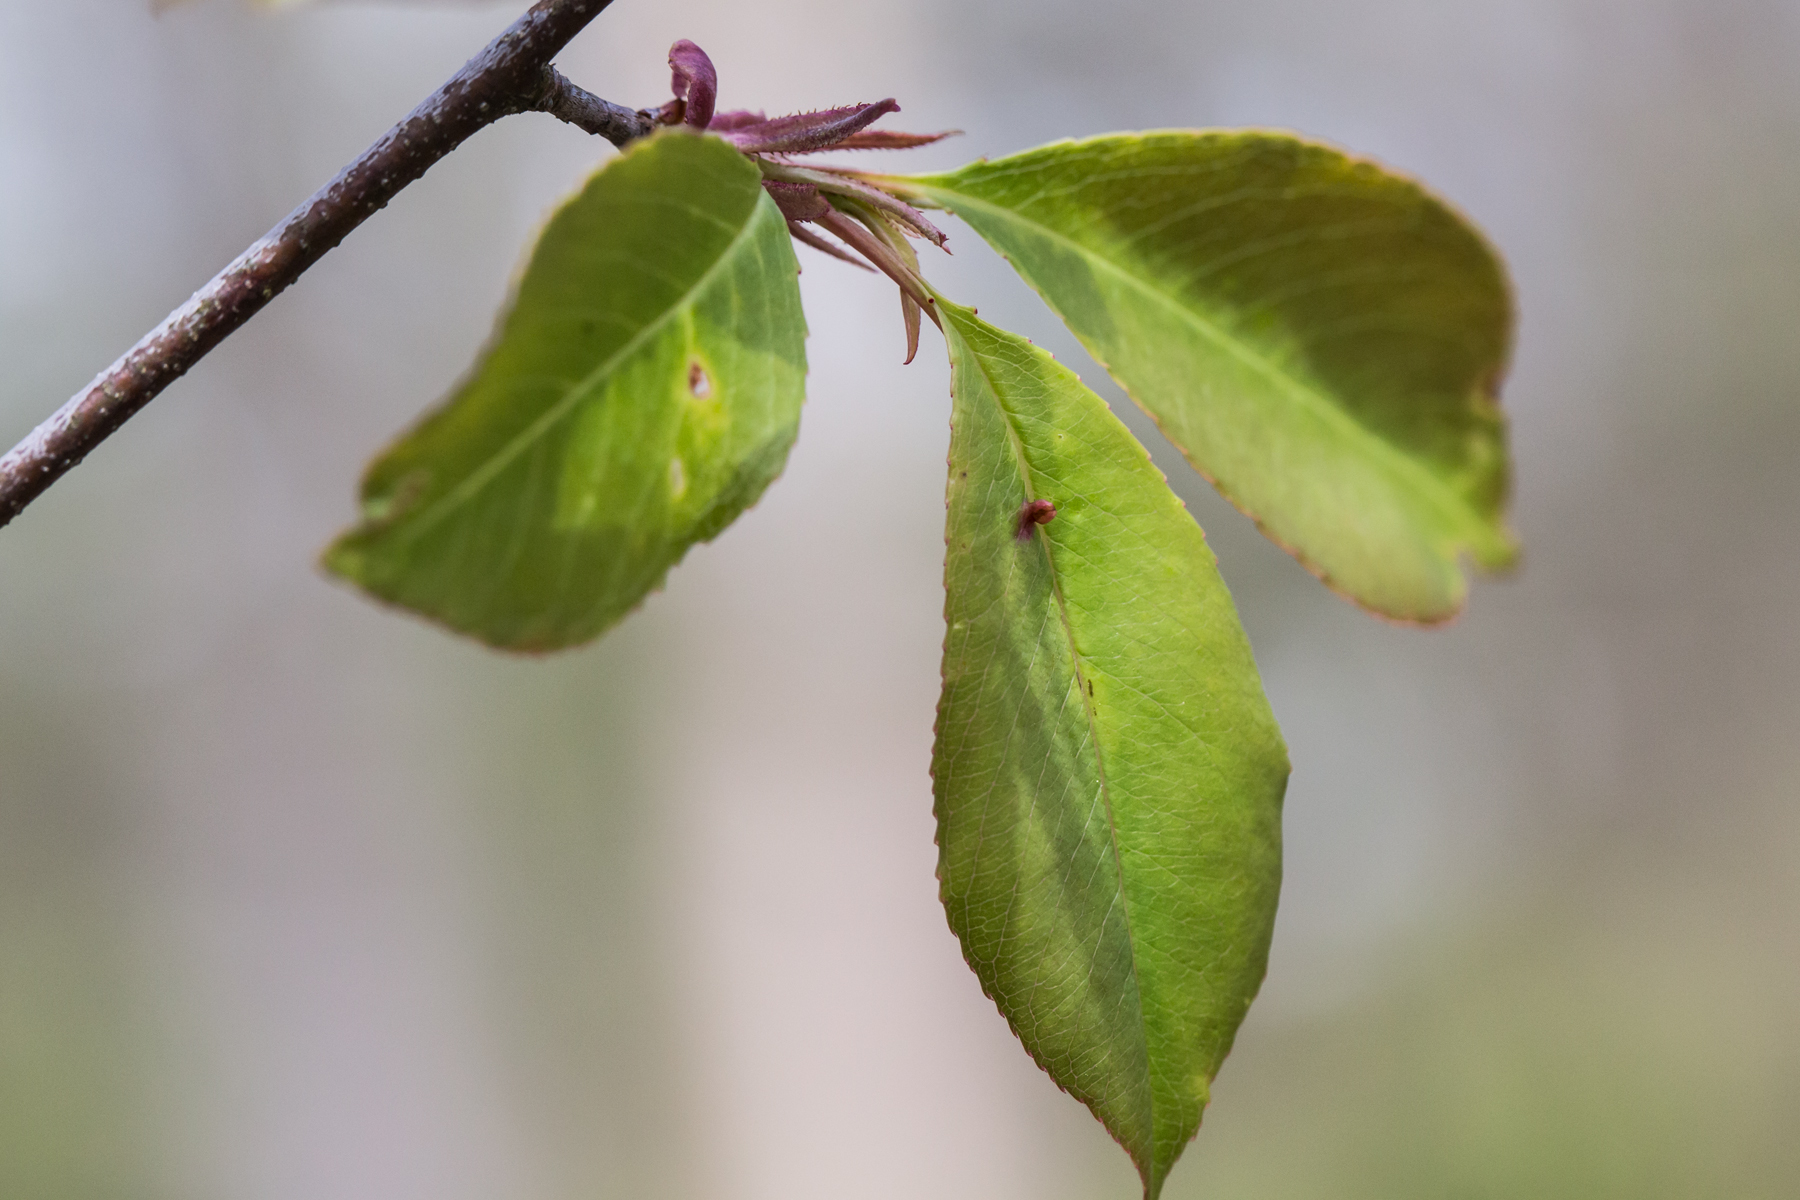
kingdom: Plantae
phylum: Tracheophyta
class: Magnoliopsida
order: Rosales
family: Rosaceae
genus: Prunus
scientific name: Prunus serotina
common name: Black cherry
